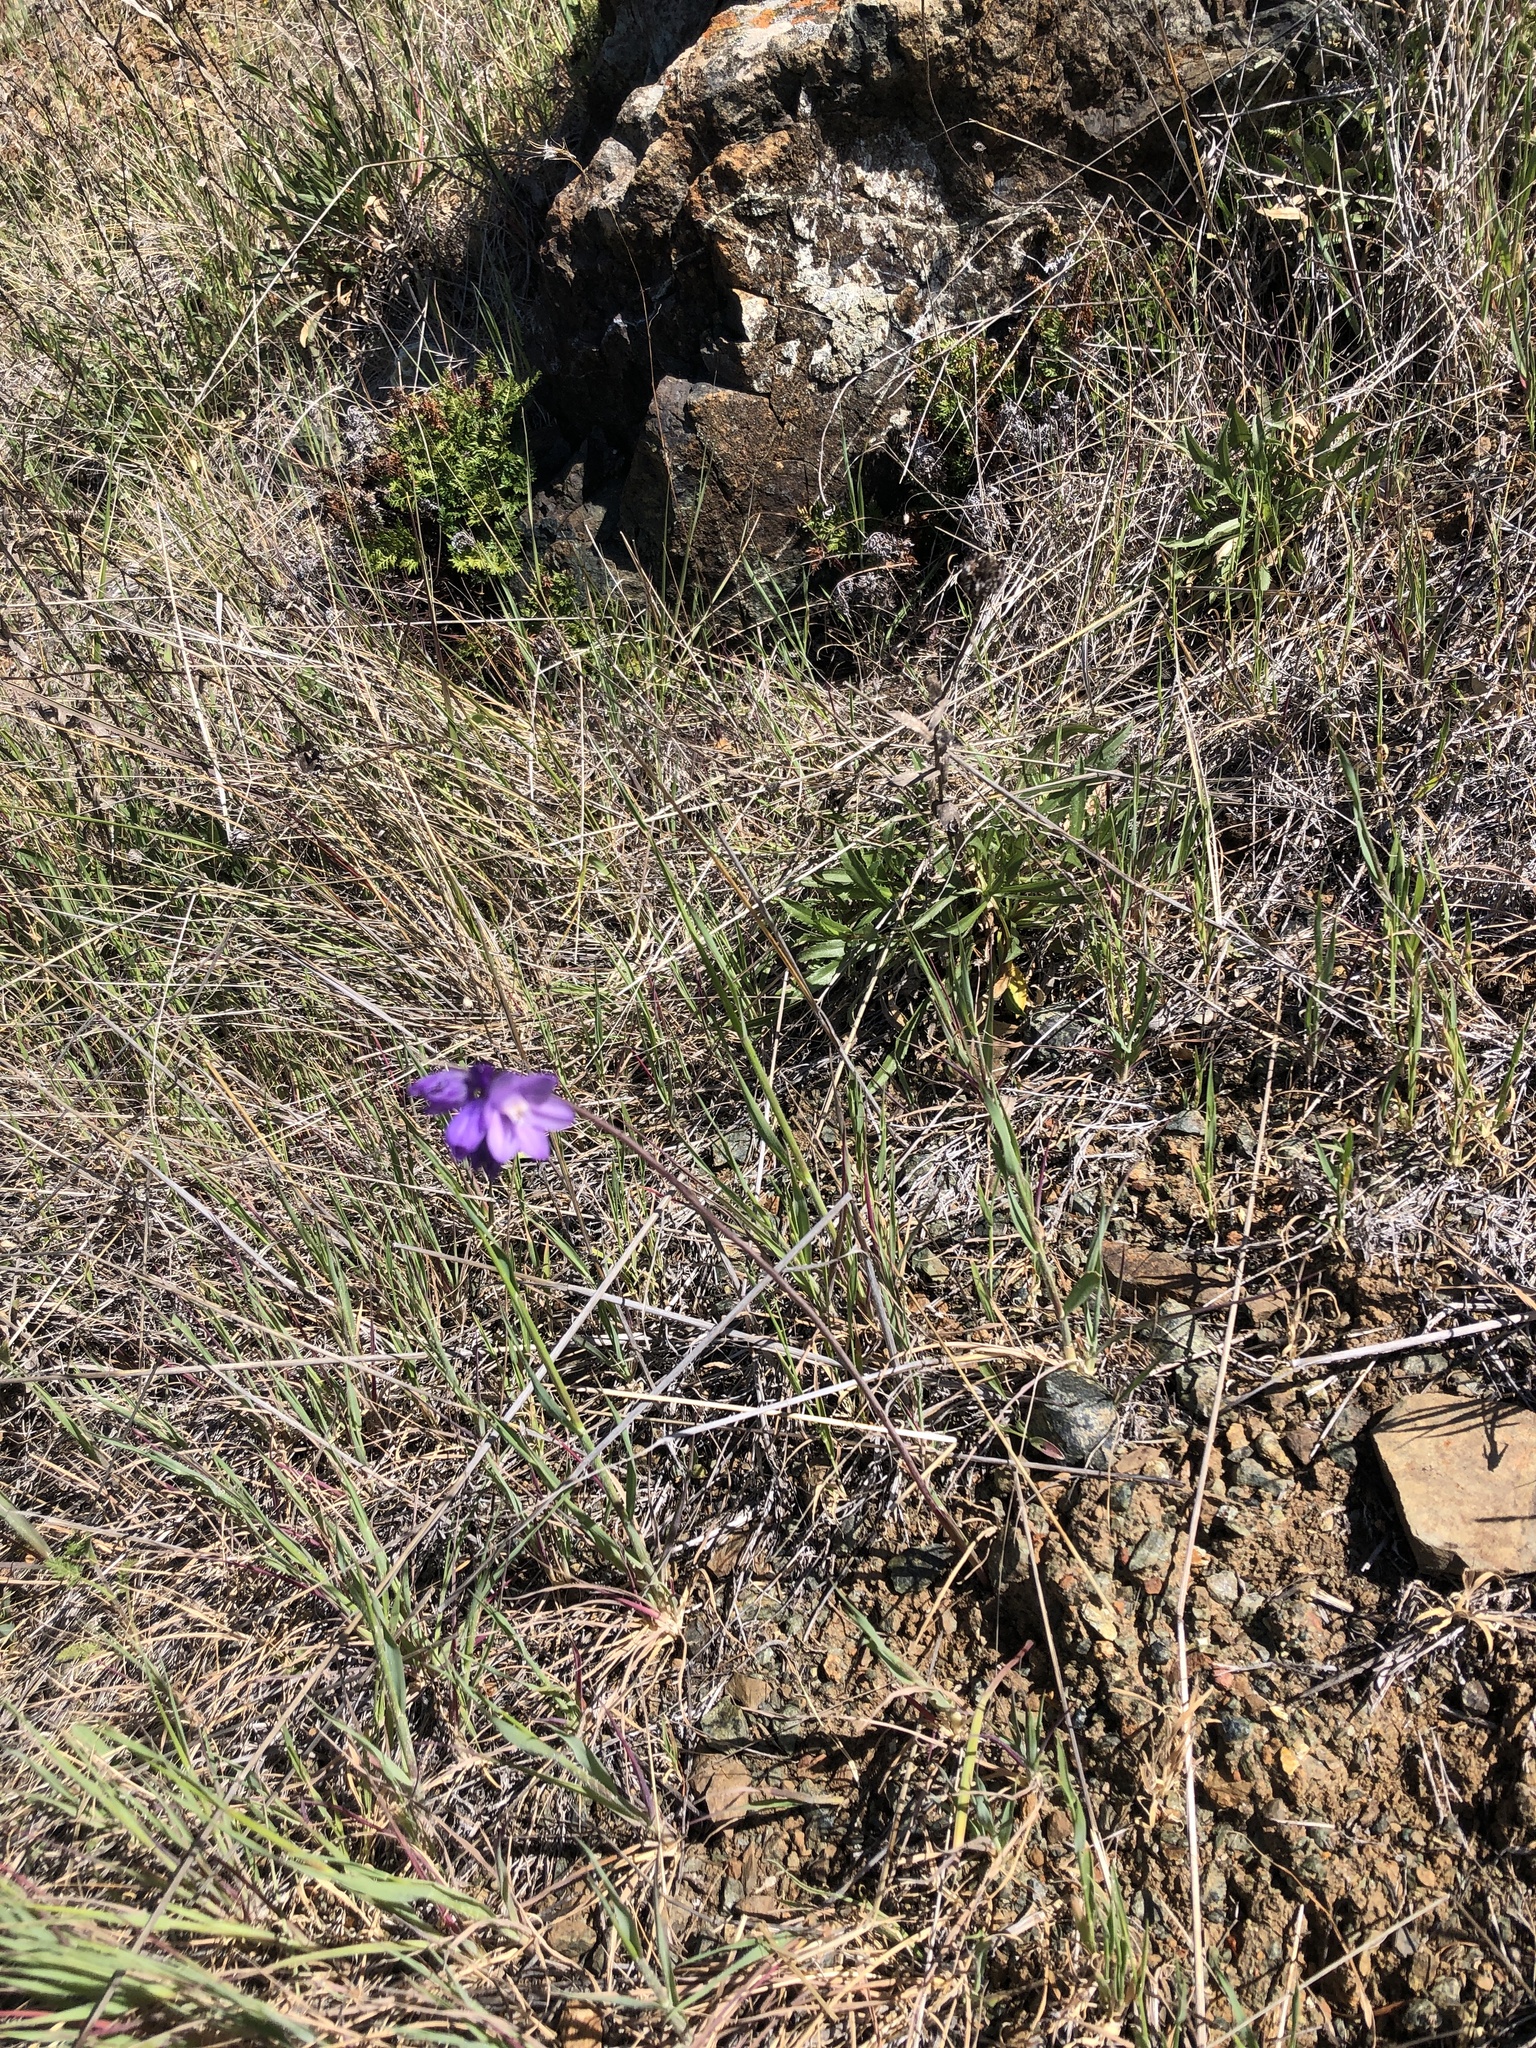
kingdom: Plantae
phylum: Tracheophyta
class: Liliopsida
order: Asparagales
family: Asparagaceae
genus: Dipterostemon
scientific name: Dipterostemon capitatus
